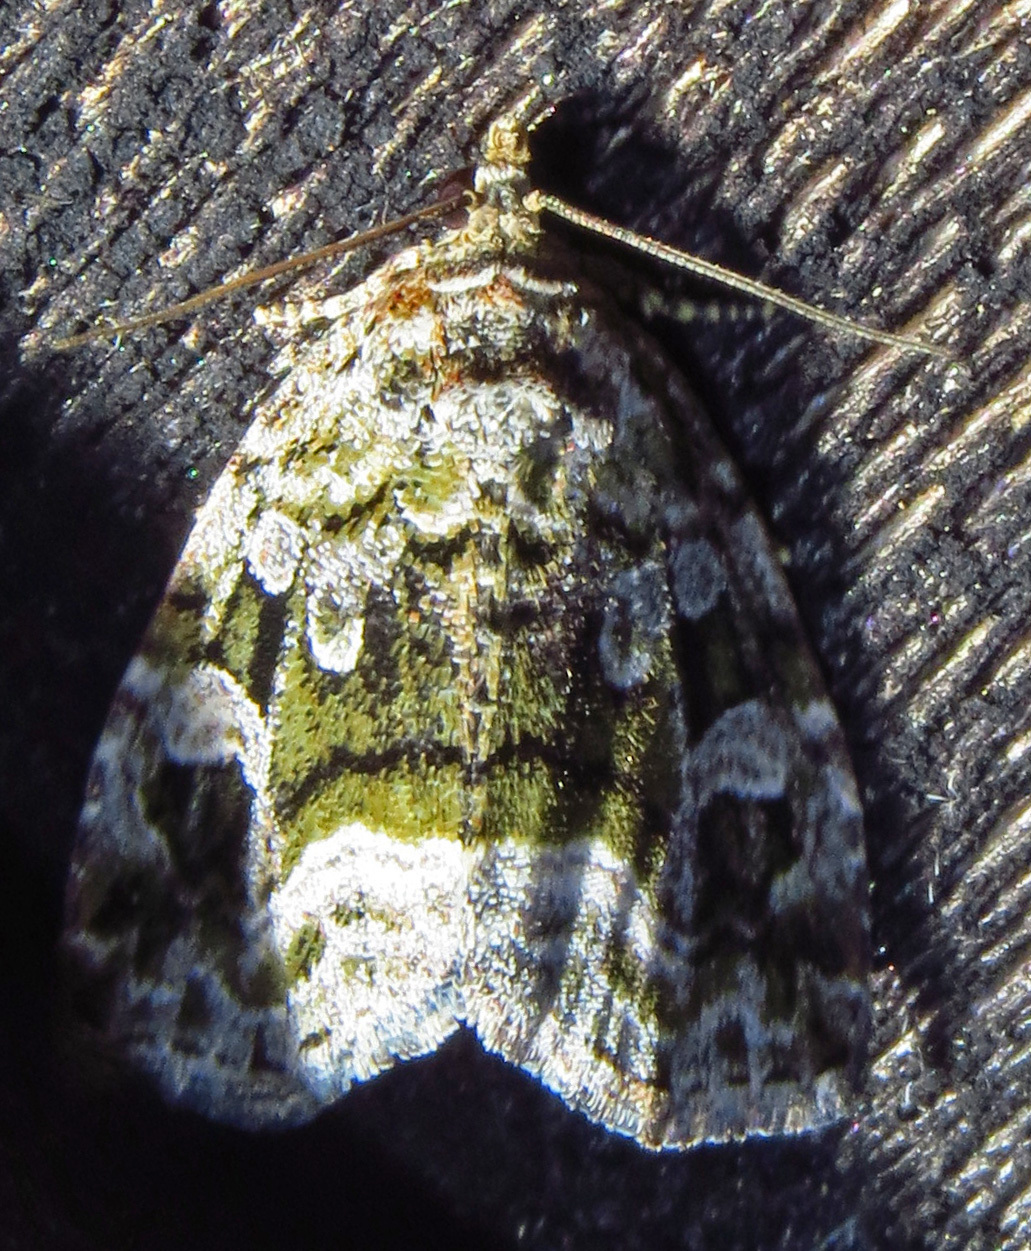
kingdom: Animalia
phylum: Arthropoda
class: Insecta
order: Lepidoptera
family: Noctuidae
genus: Protodeltote
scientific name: Protodeltote muscosula
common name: Large mossy glyph
